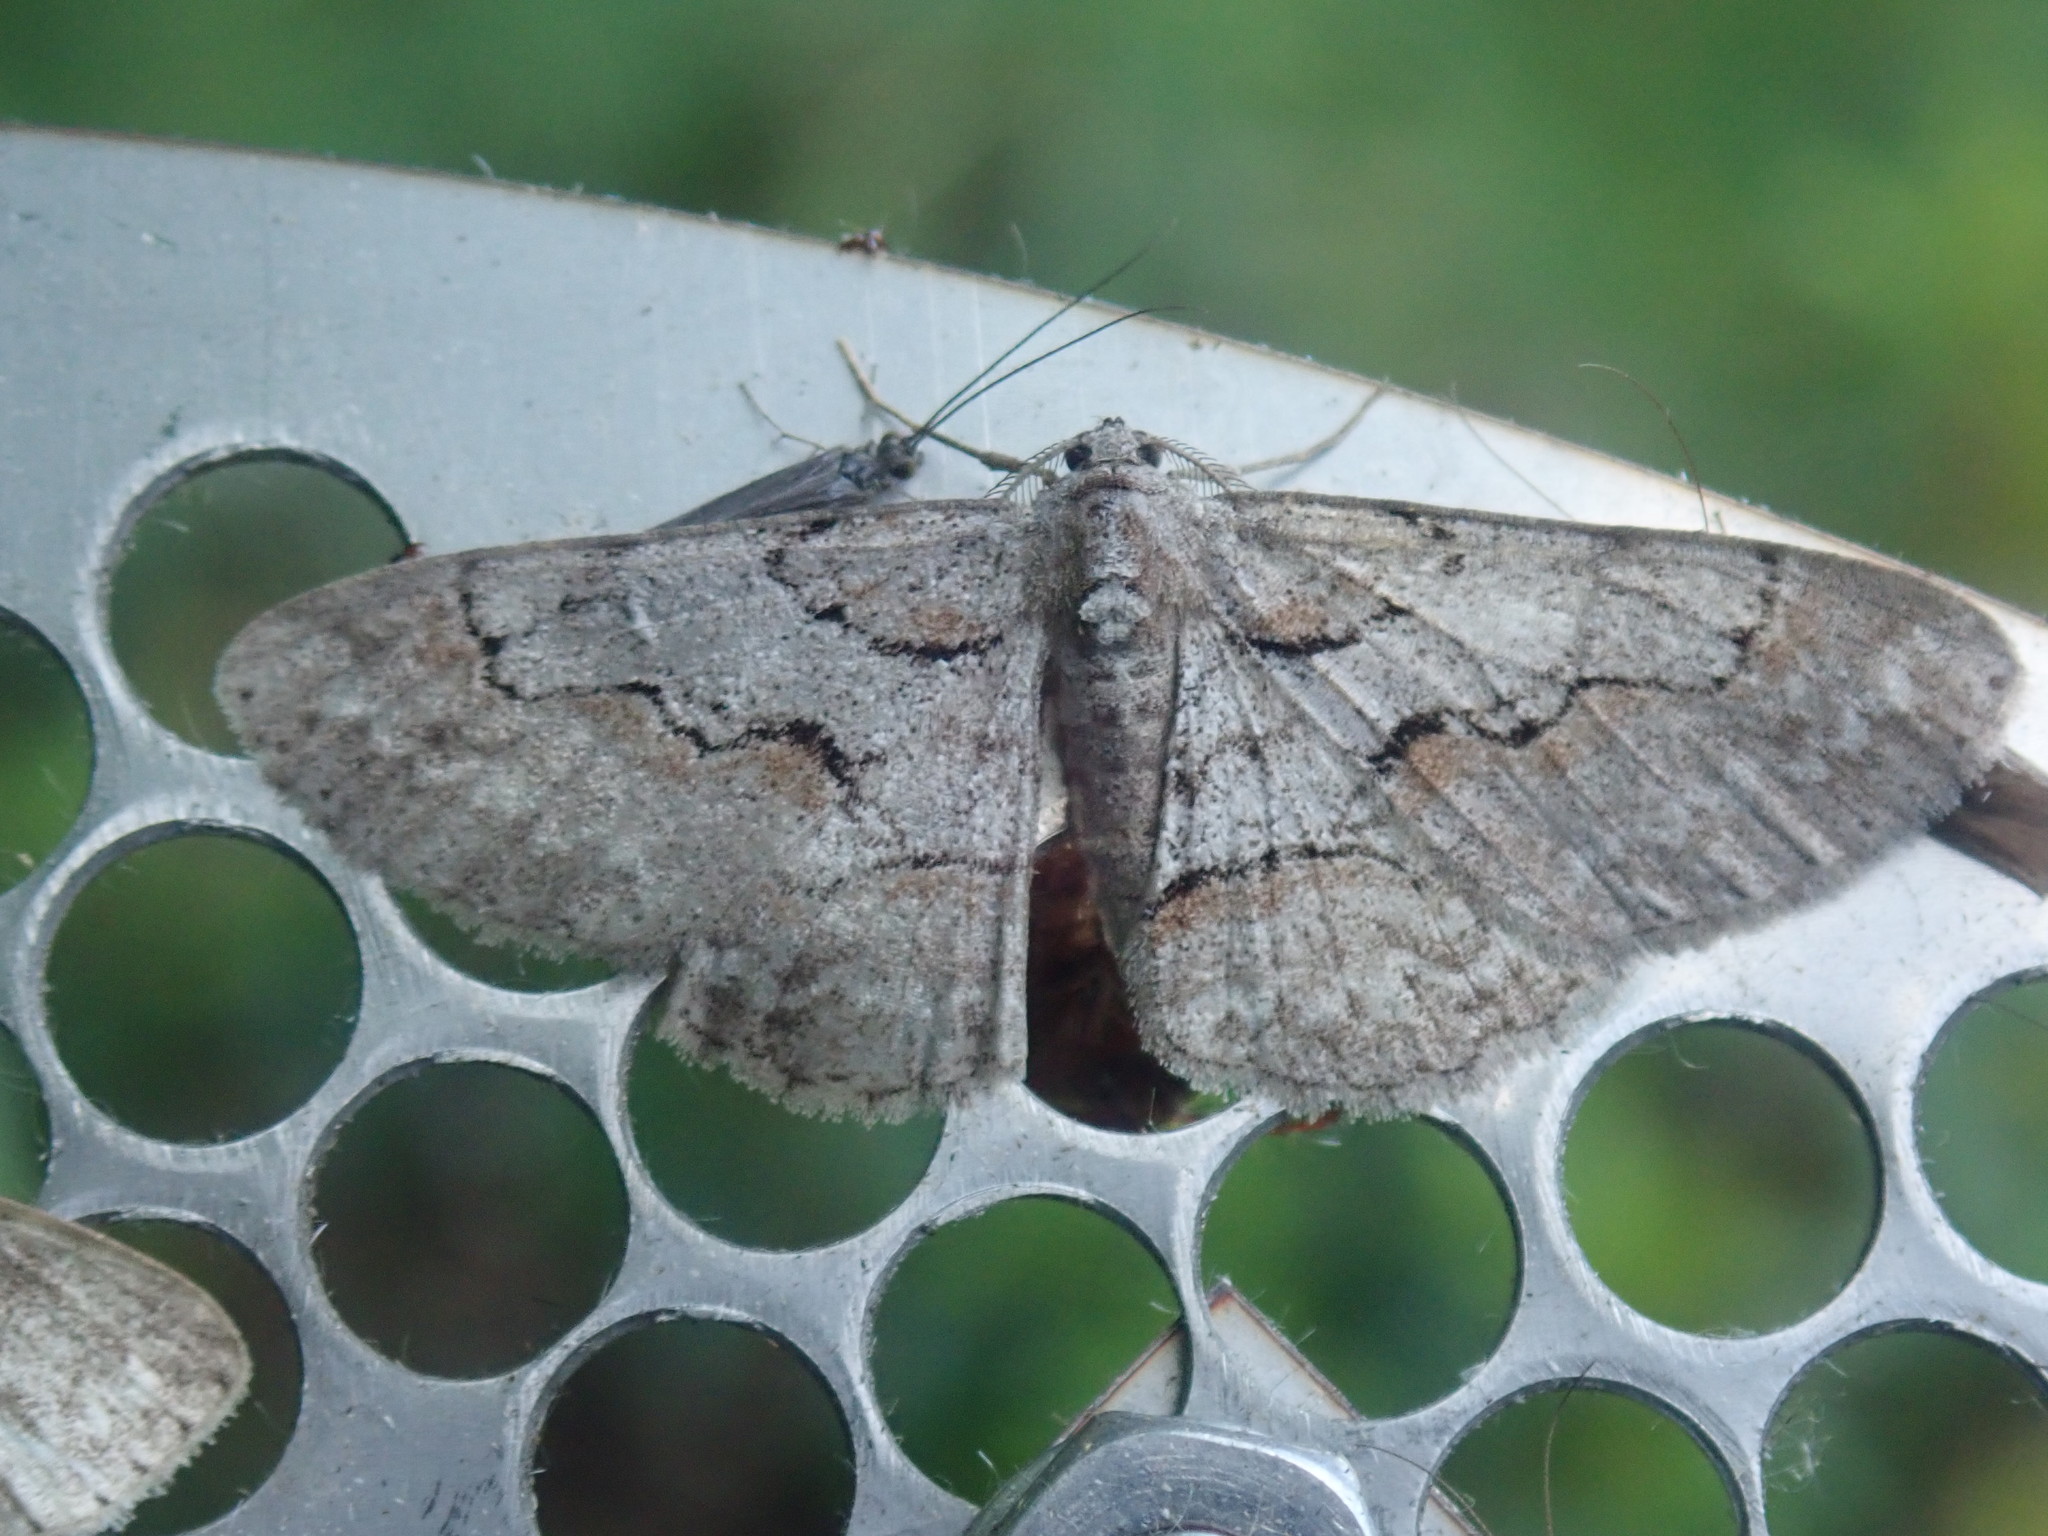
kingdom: Animalia
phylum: Arthropoda
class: Insecta
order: Lepidoptera
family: Geometridae
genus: Iridopsis
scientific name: Iridopsis vellivolata
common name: Large purplish gray
